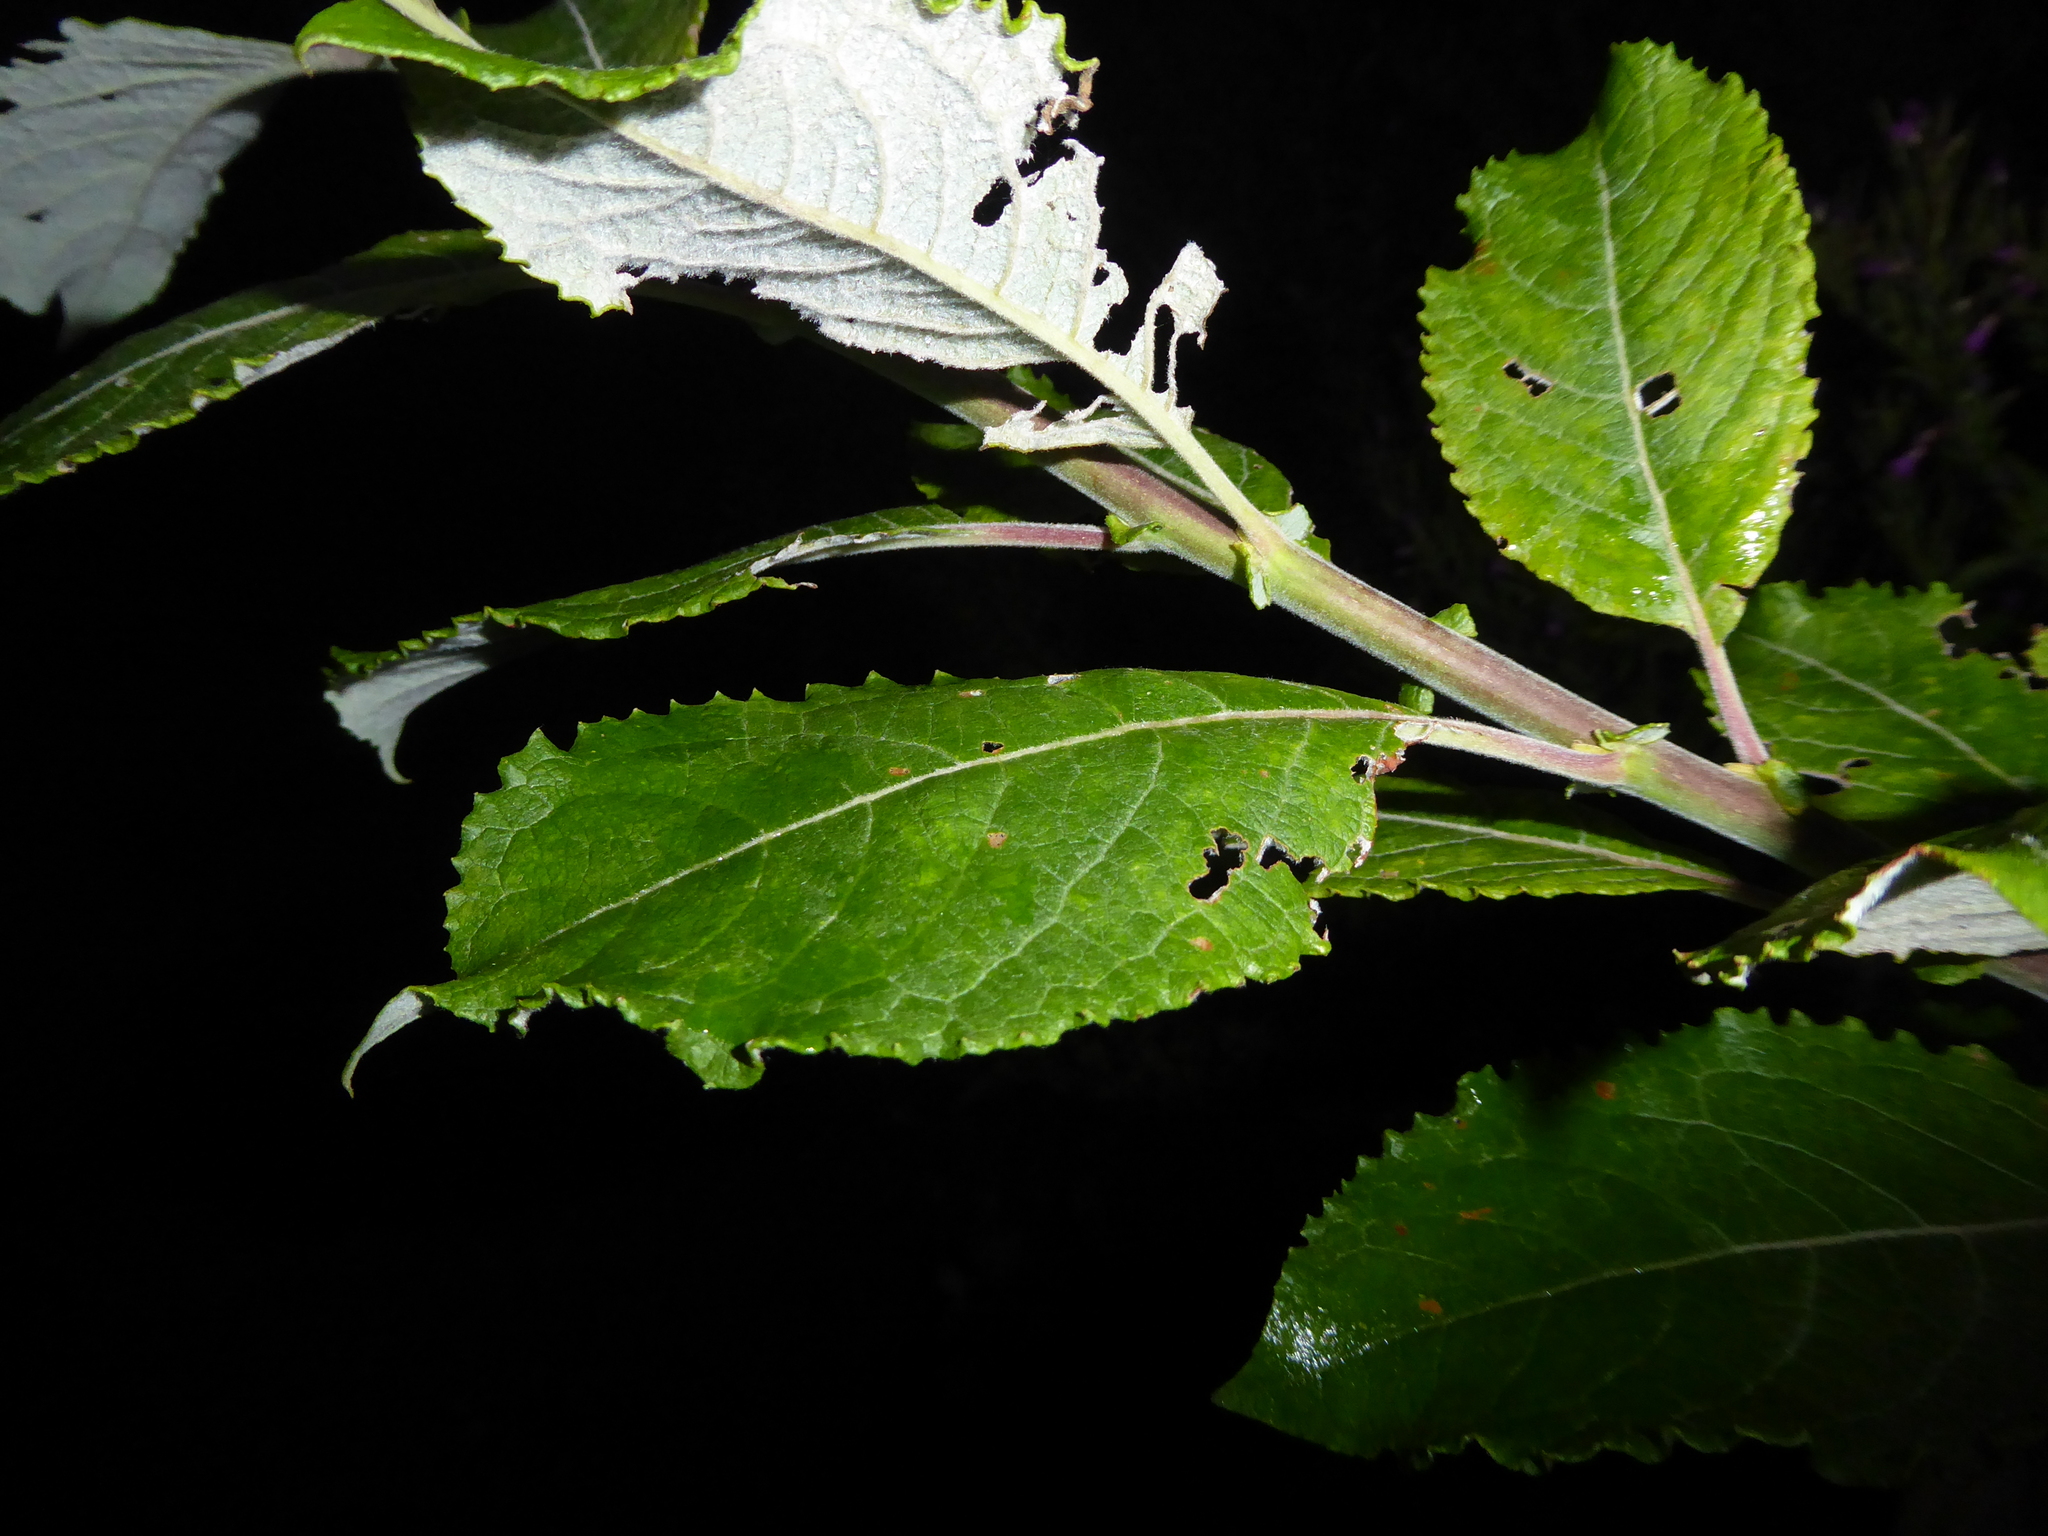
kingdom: Plantae
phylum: Tracheophyta
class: Magnoliopsida
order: Malpighiales
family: Salicaceae
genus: Salix
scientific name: Salix caprea
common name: Goat willow
